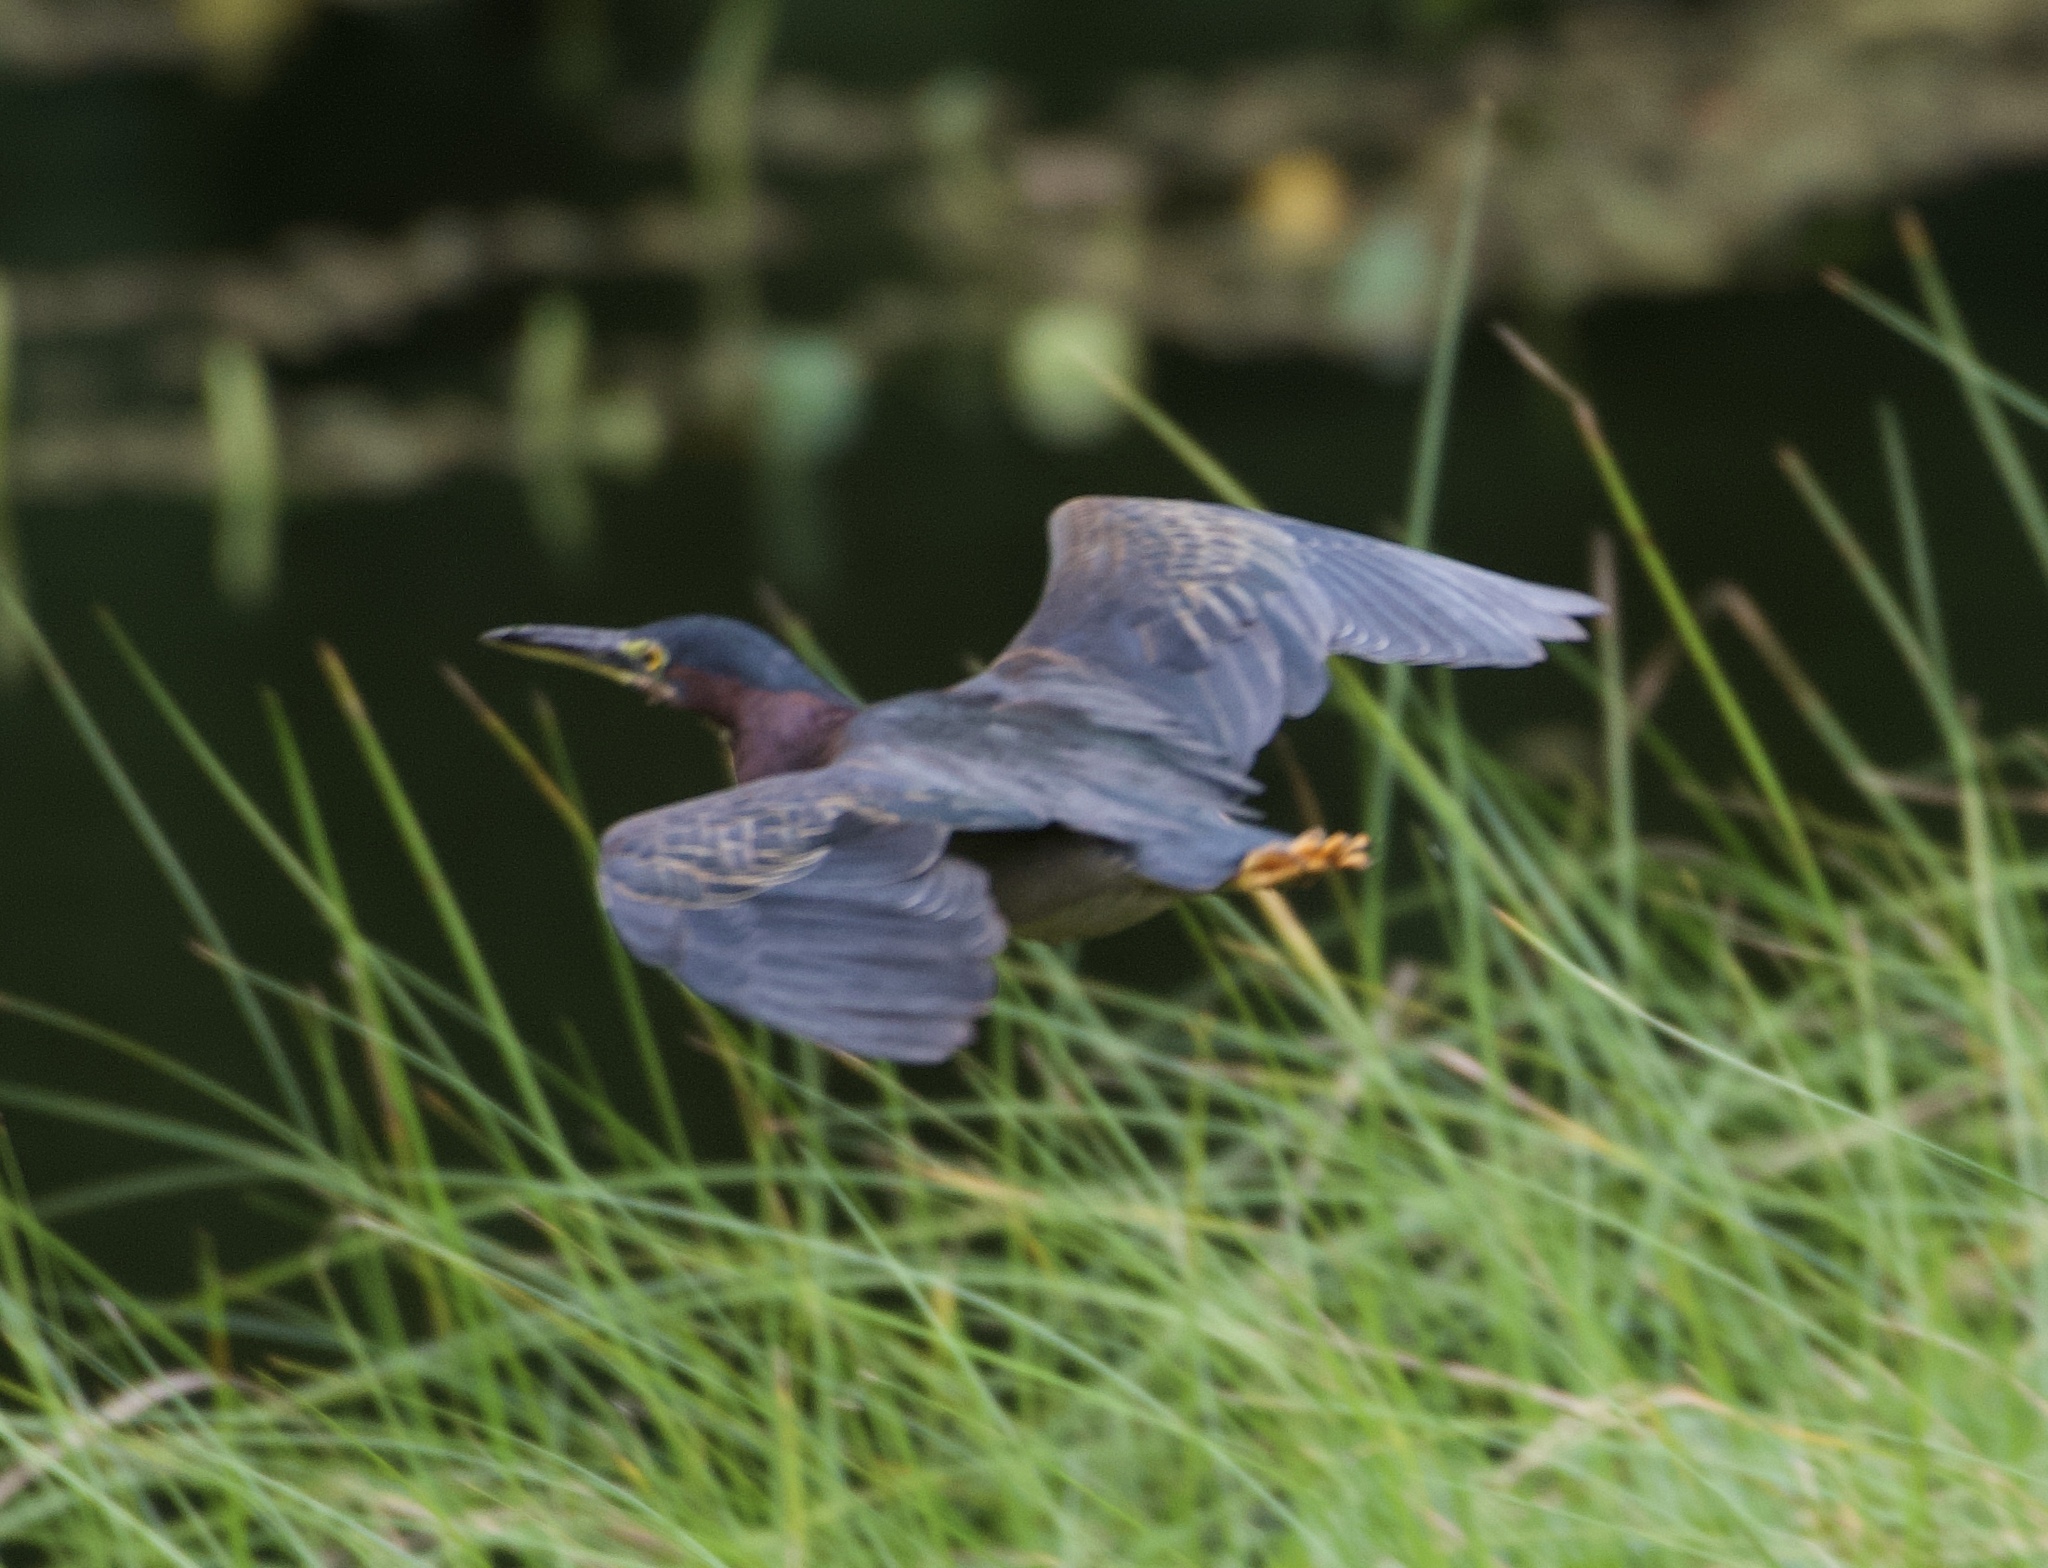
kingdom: Animalia
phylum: Chordata
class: Aves
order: Pelecaniformes
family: Ardeidae
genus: Butorides
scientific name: Butorides virescens
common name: Green heron
